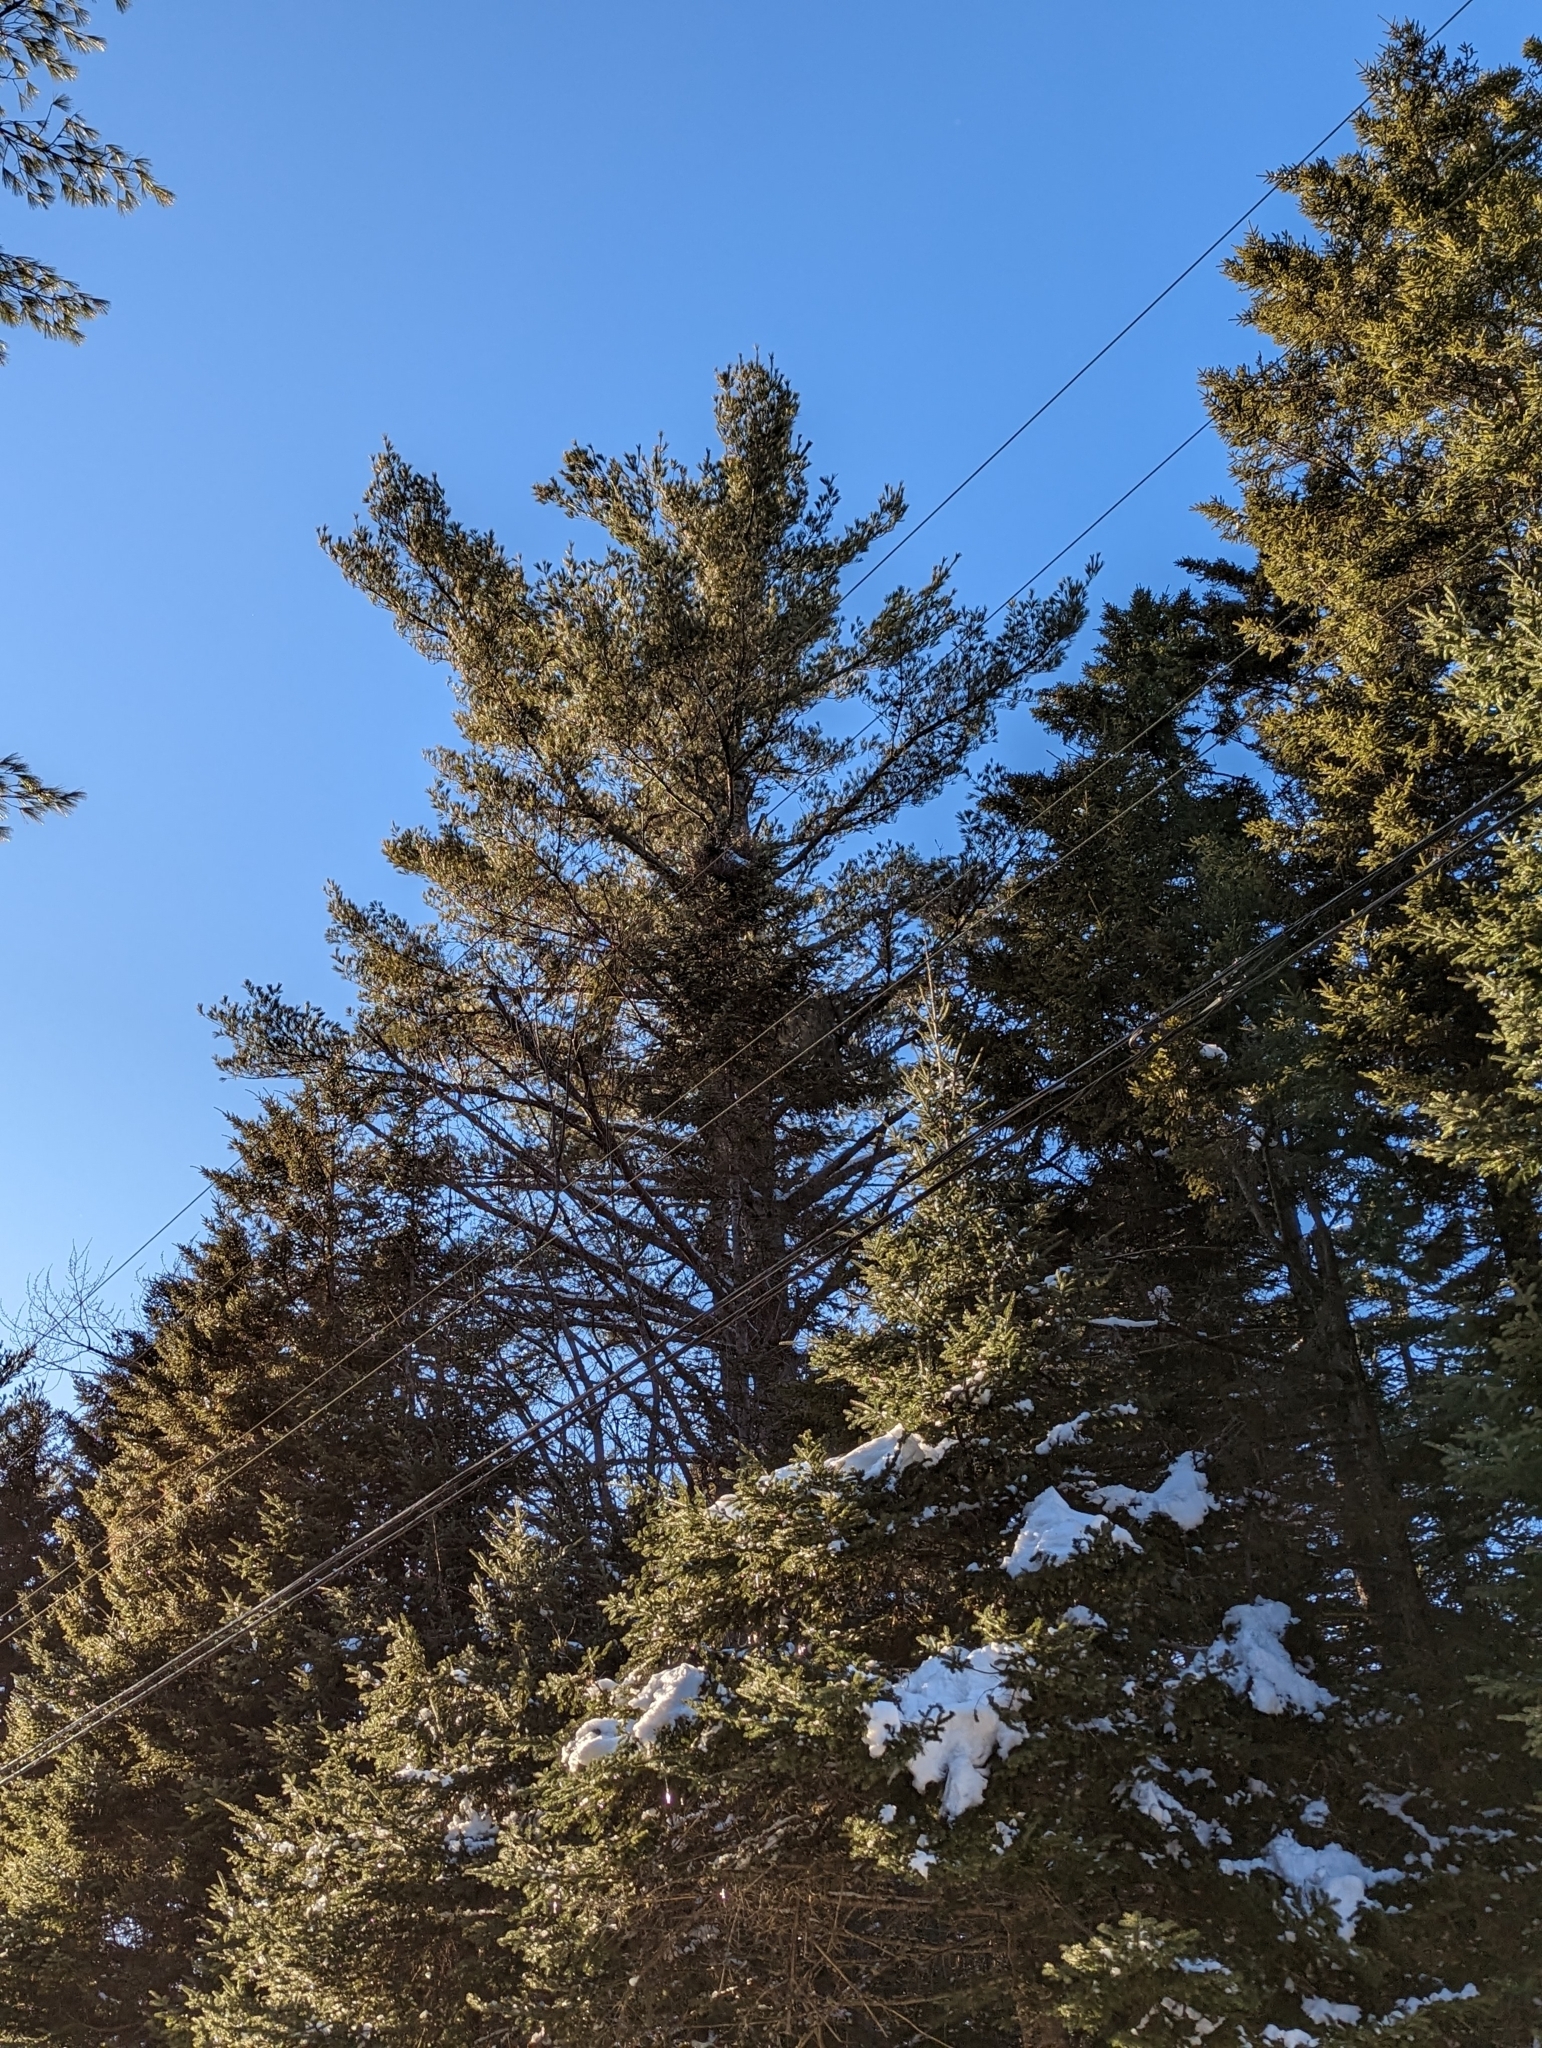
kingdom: Plantae
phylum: Tracheophyta
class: Pinopsida
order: Pinales
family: Pinaceae
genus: Pinus
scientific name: Pinus strobus
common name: Weymouth pine
